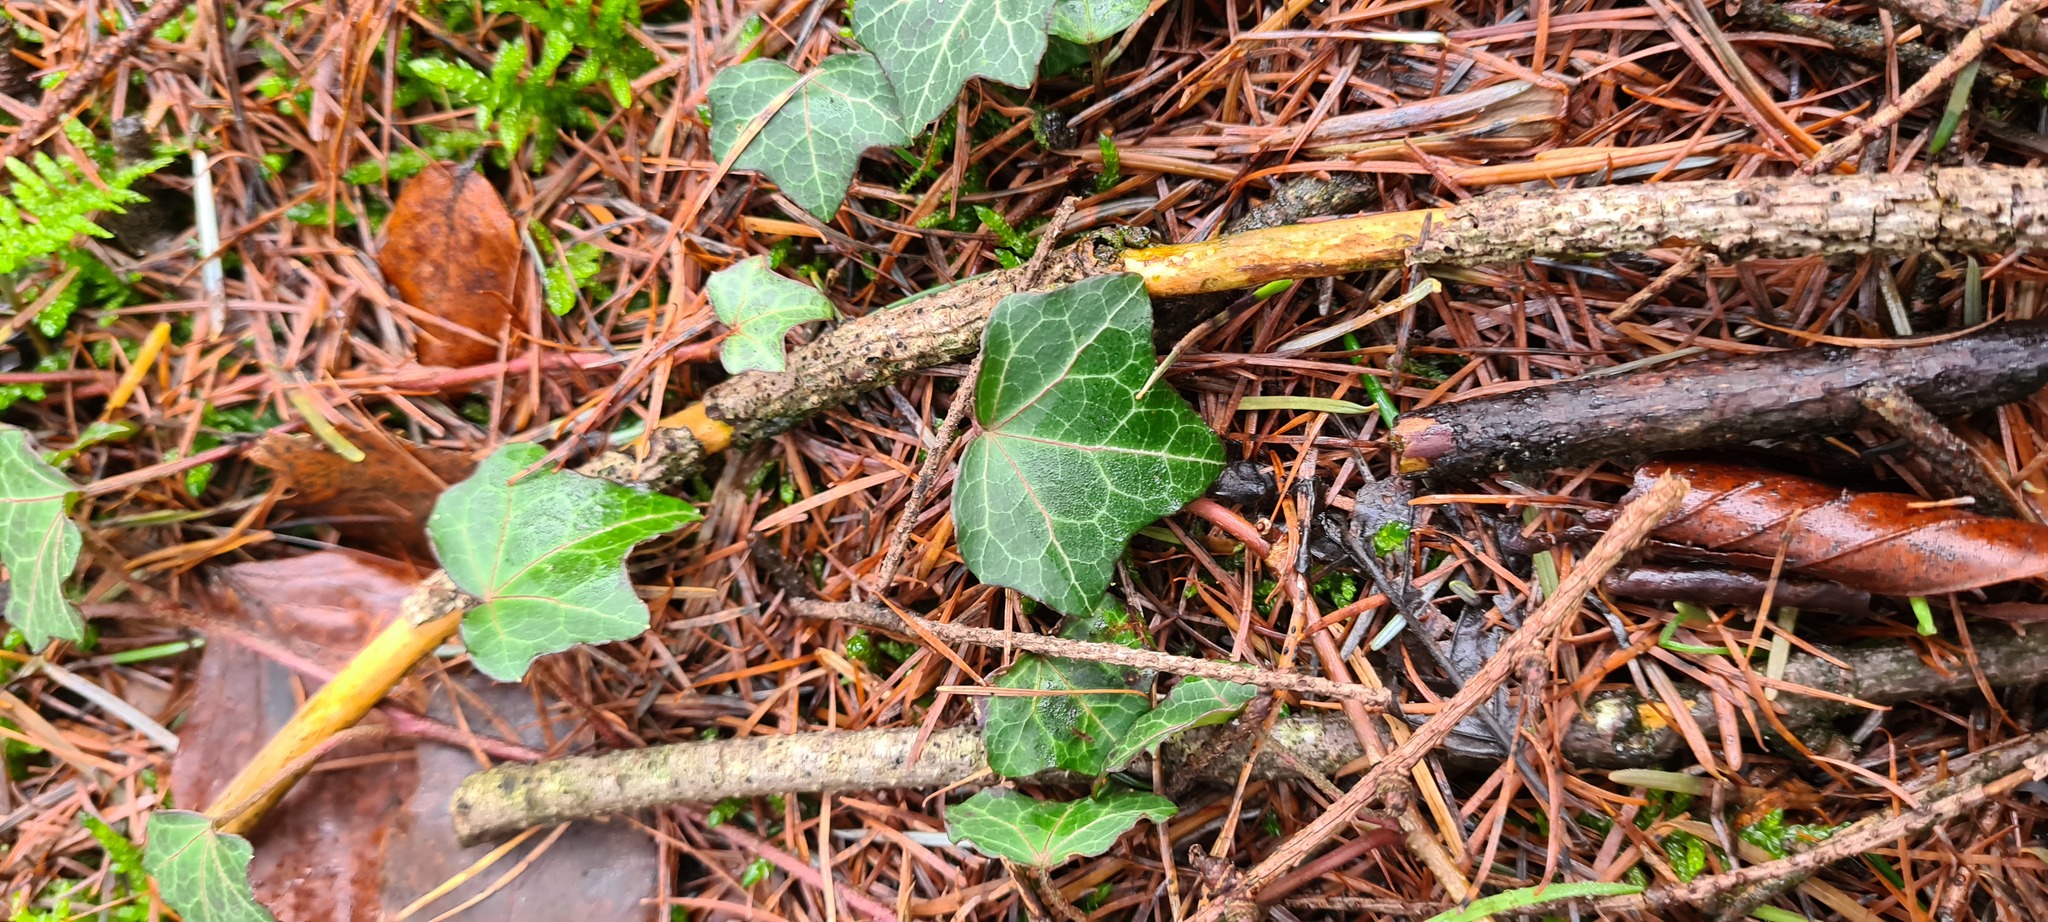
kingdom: Plantae
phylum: Tracheophyta
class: Magnoliopsida
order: Apiales
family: Araliaceae
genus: Hedera
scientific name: Hedera helix
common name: Ivy
